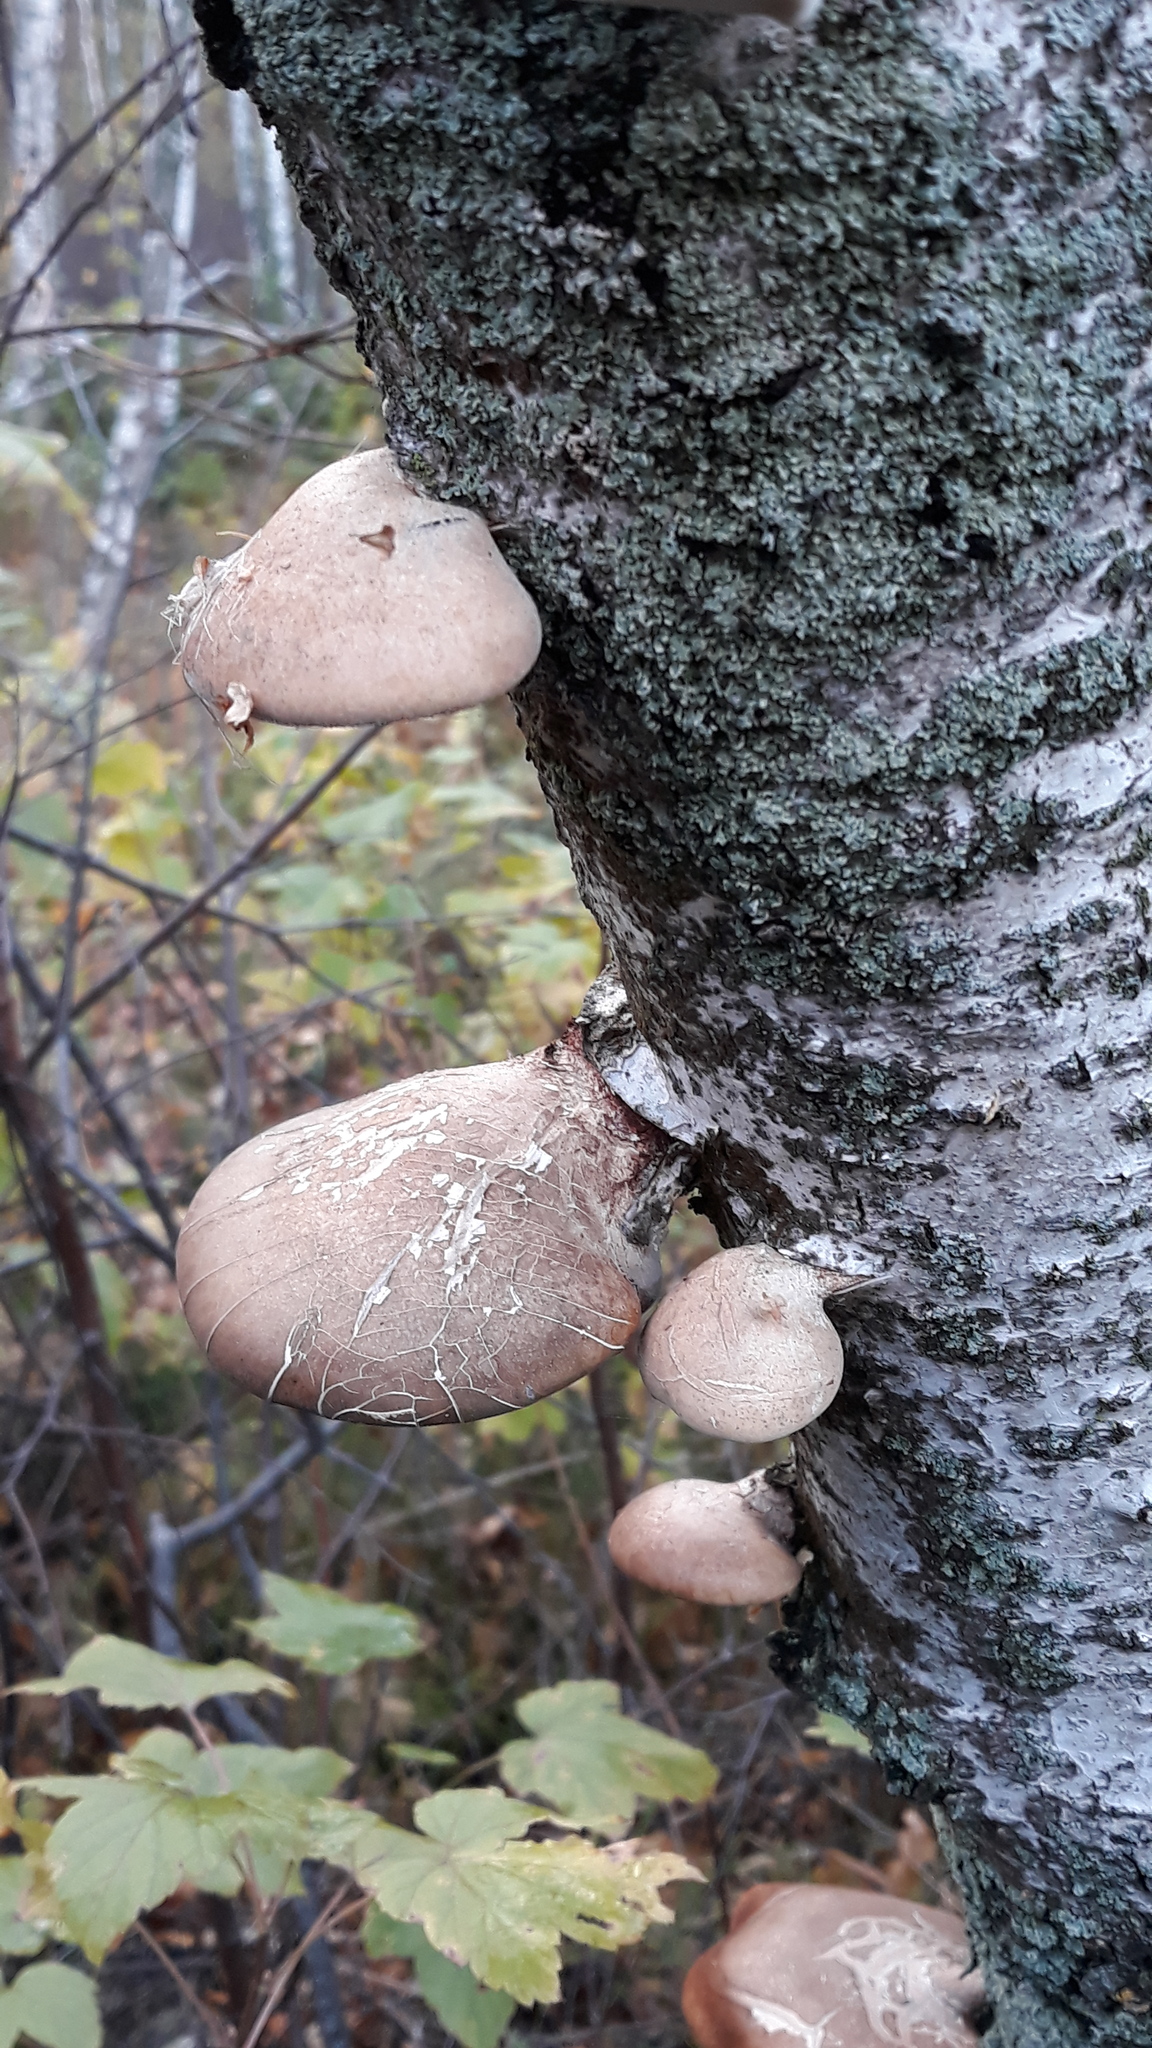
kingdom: Fungi
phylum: Basidiomycota
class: Agaricomycetes
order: Polyporales
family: Fomitopsidaceae
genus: Fomitopsis
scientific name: Fomitopsis betulina
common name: Birch polypore
